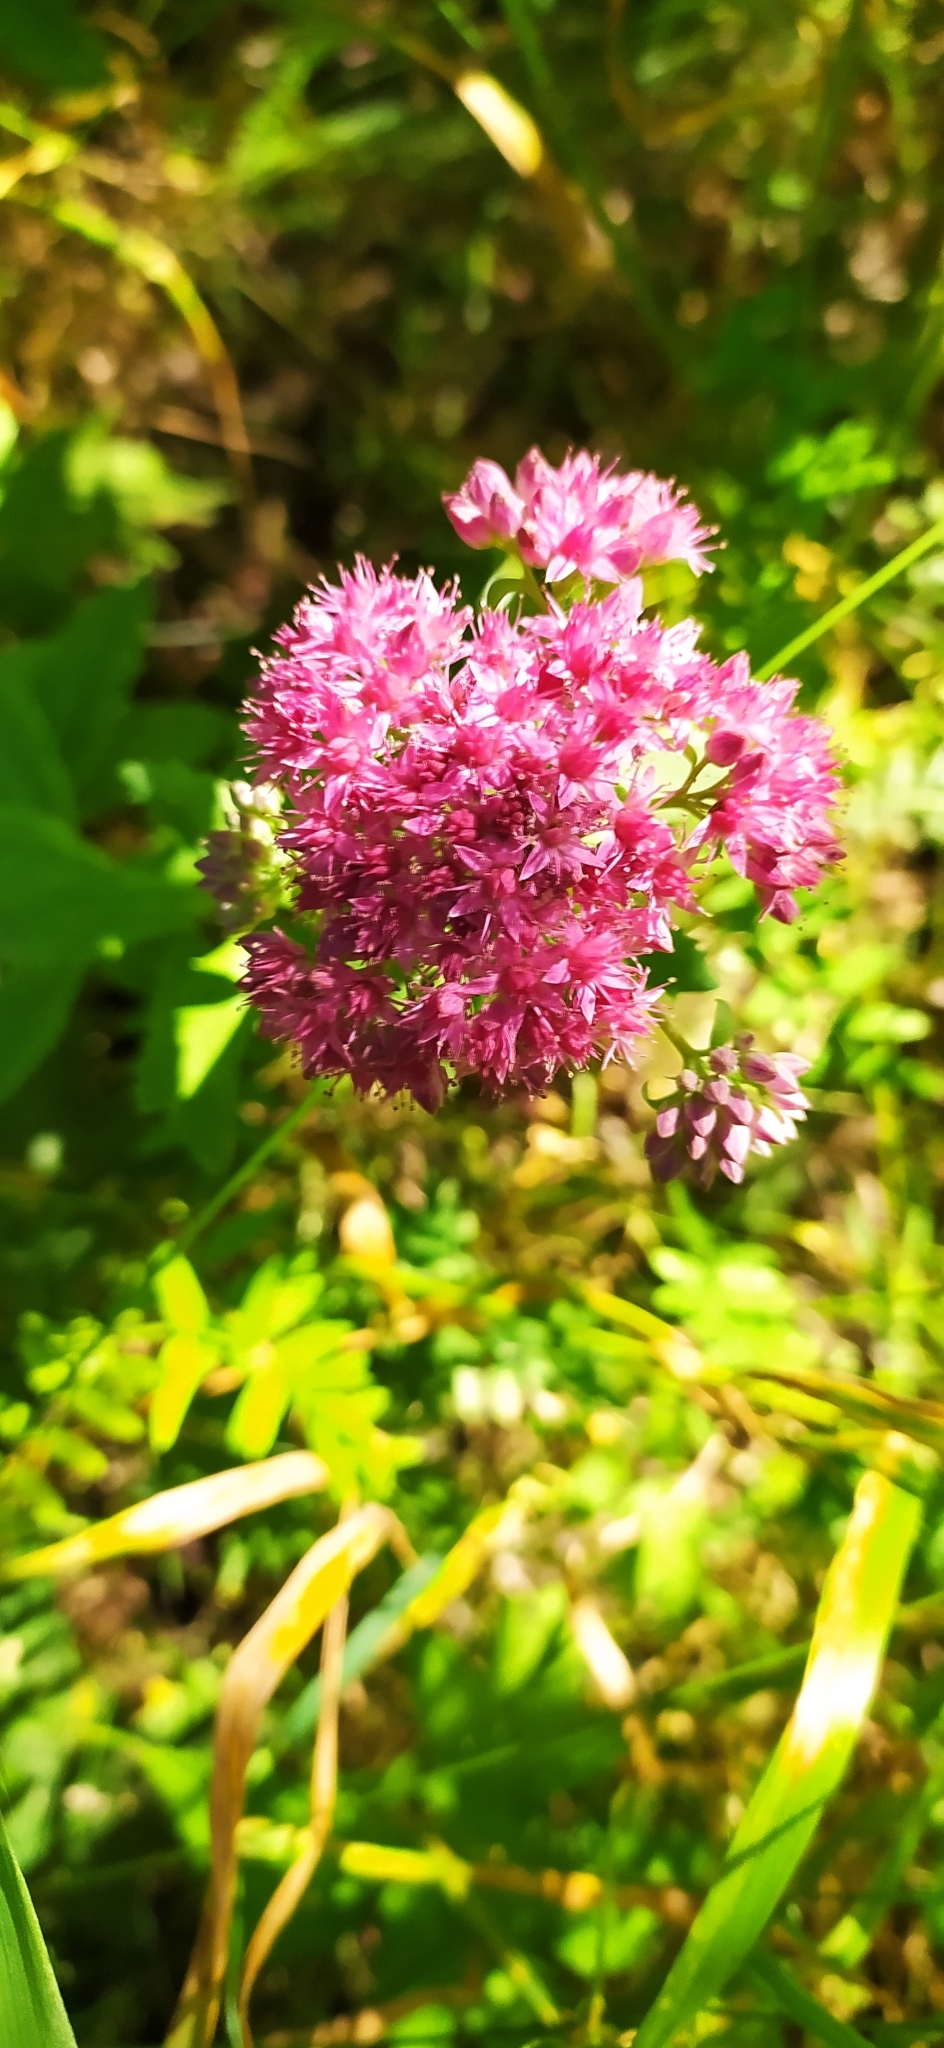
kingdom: Plantae
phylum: Tracheophyta
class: Magnoliopsida
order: Saxifragales
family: Crassulaceae
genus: Hylotelephium
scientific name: Hylotelephium telephium
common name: Live-forever
